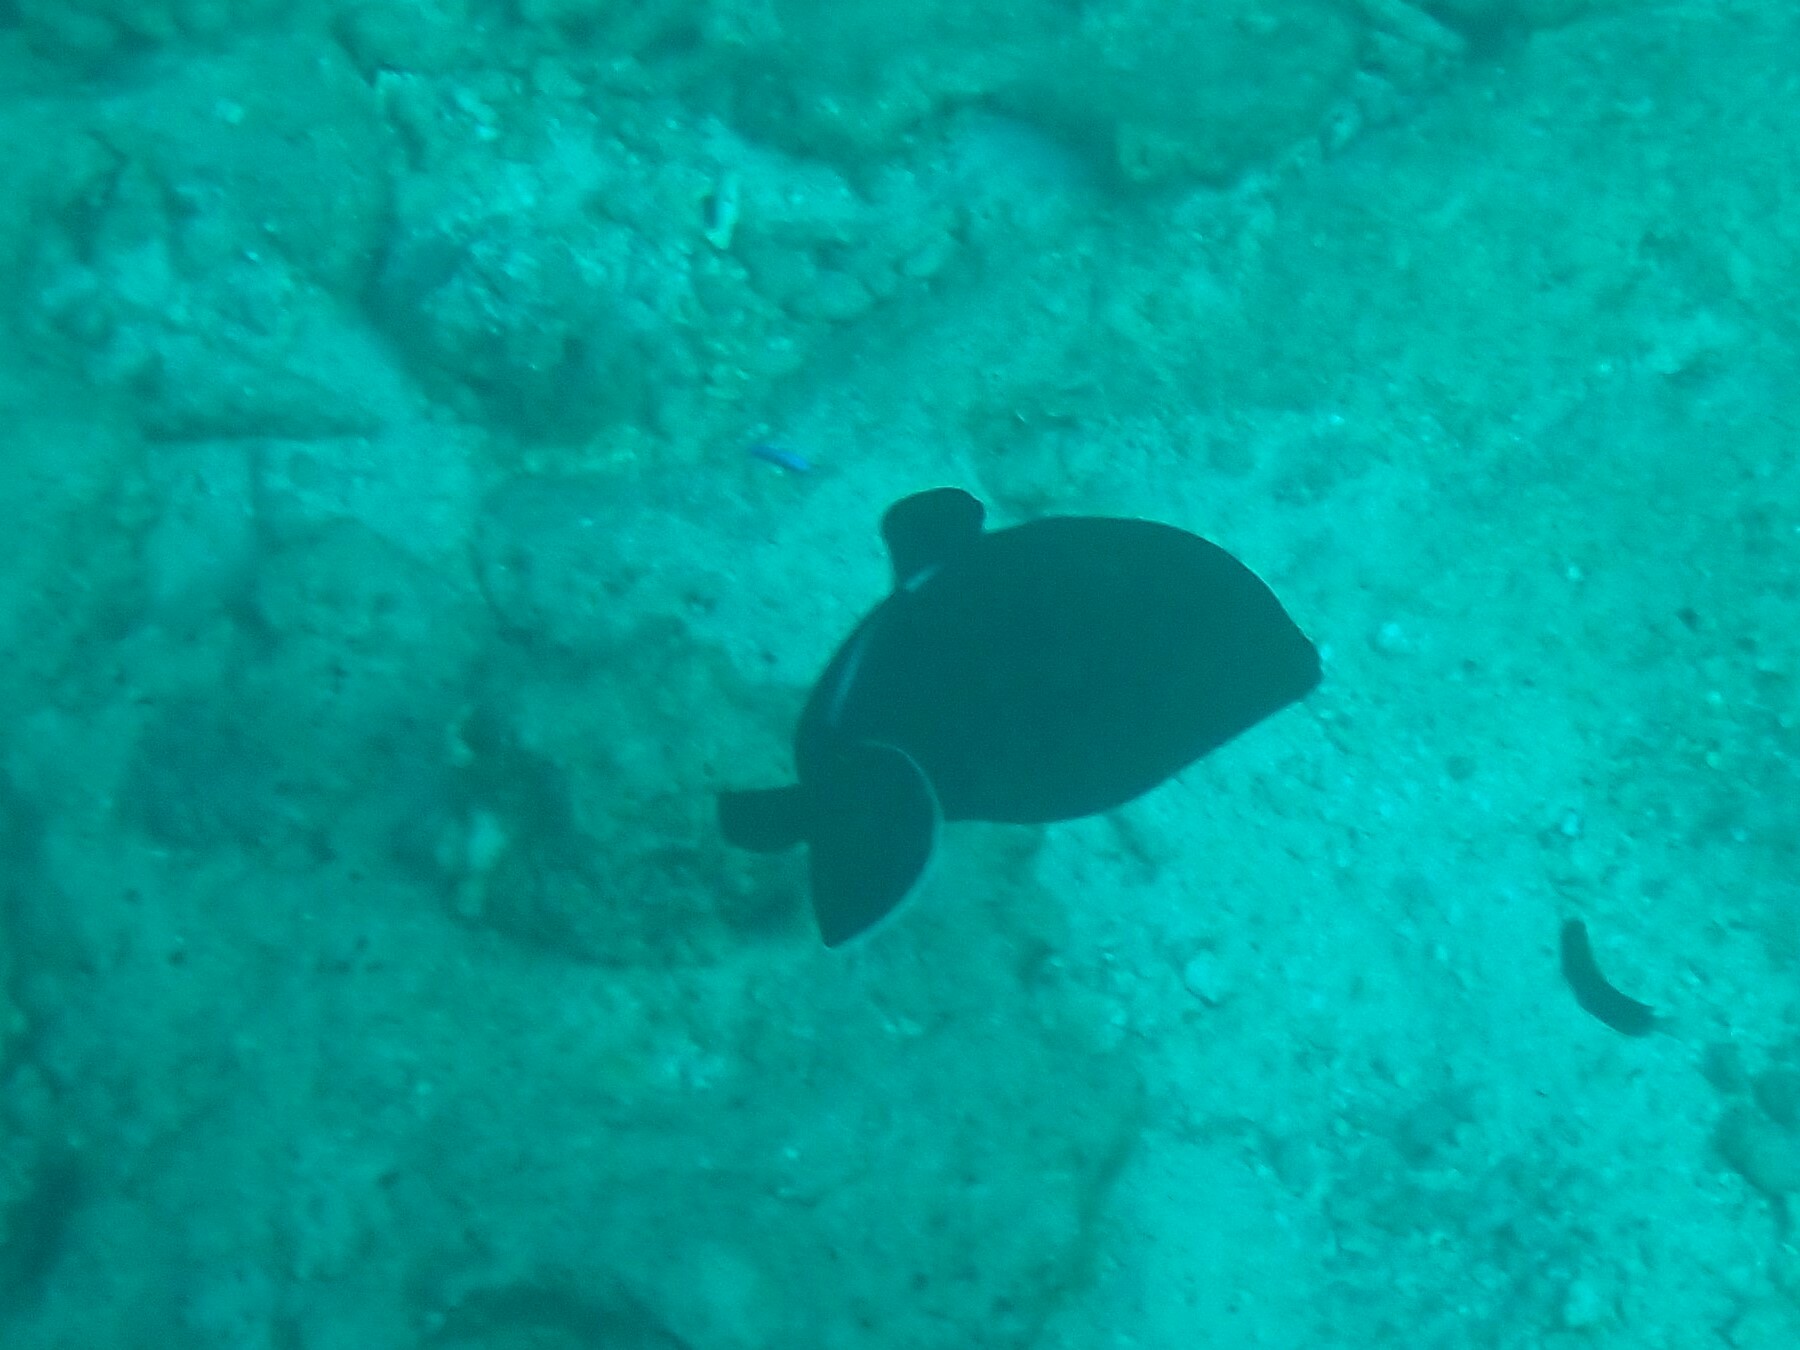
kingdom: Animalia
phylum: Chordata
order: Tetraodontiformes
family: Balistidae
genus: Melichthys
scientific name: Melichthys indicus
